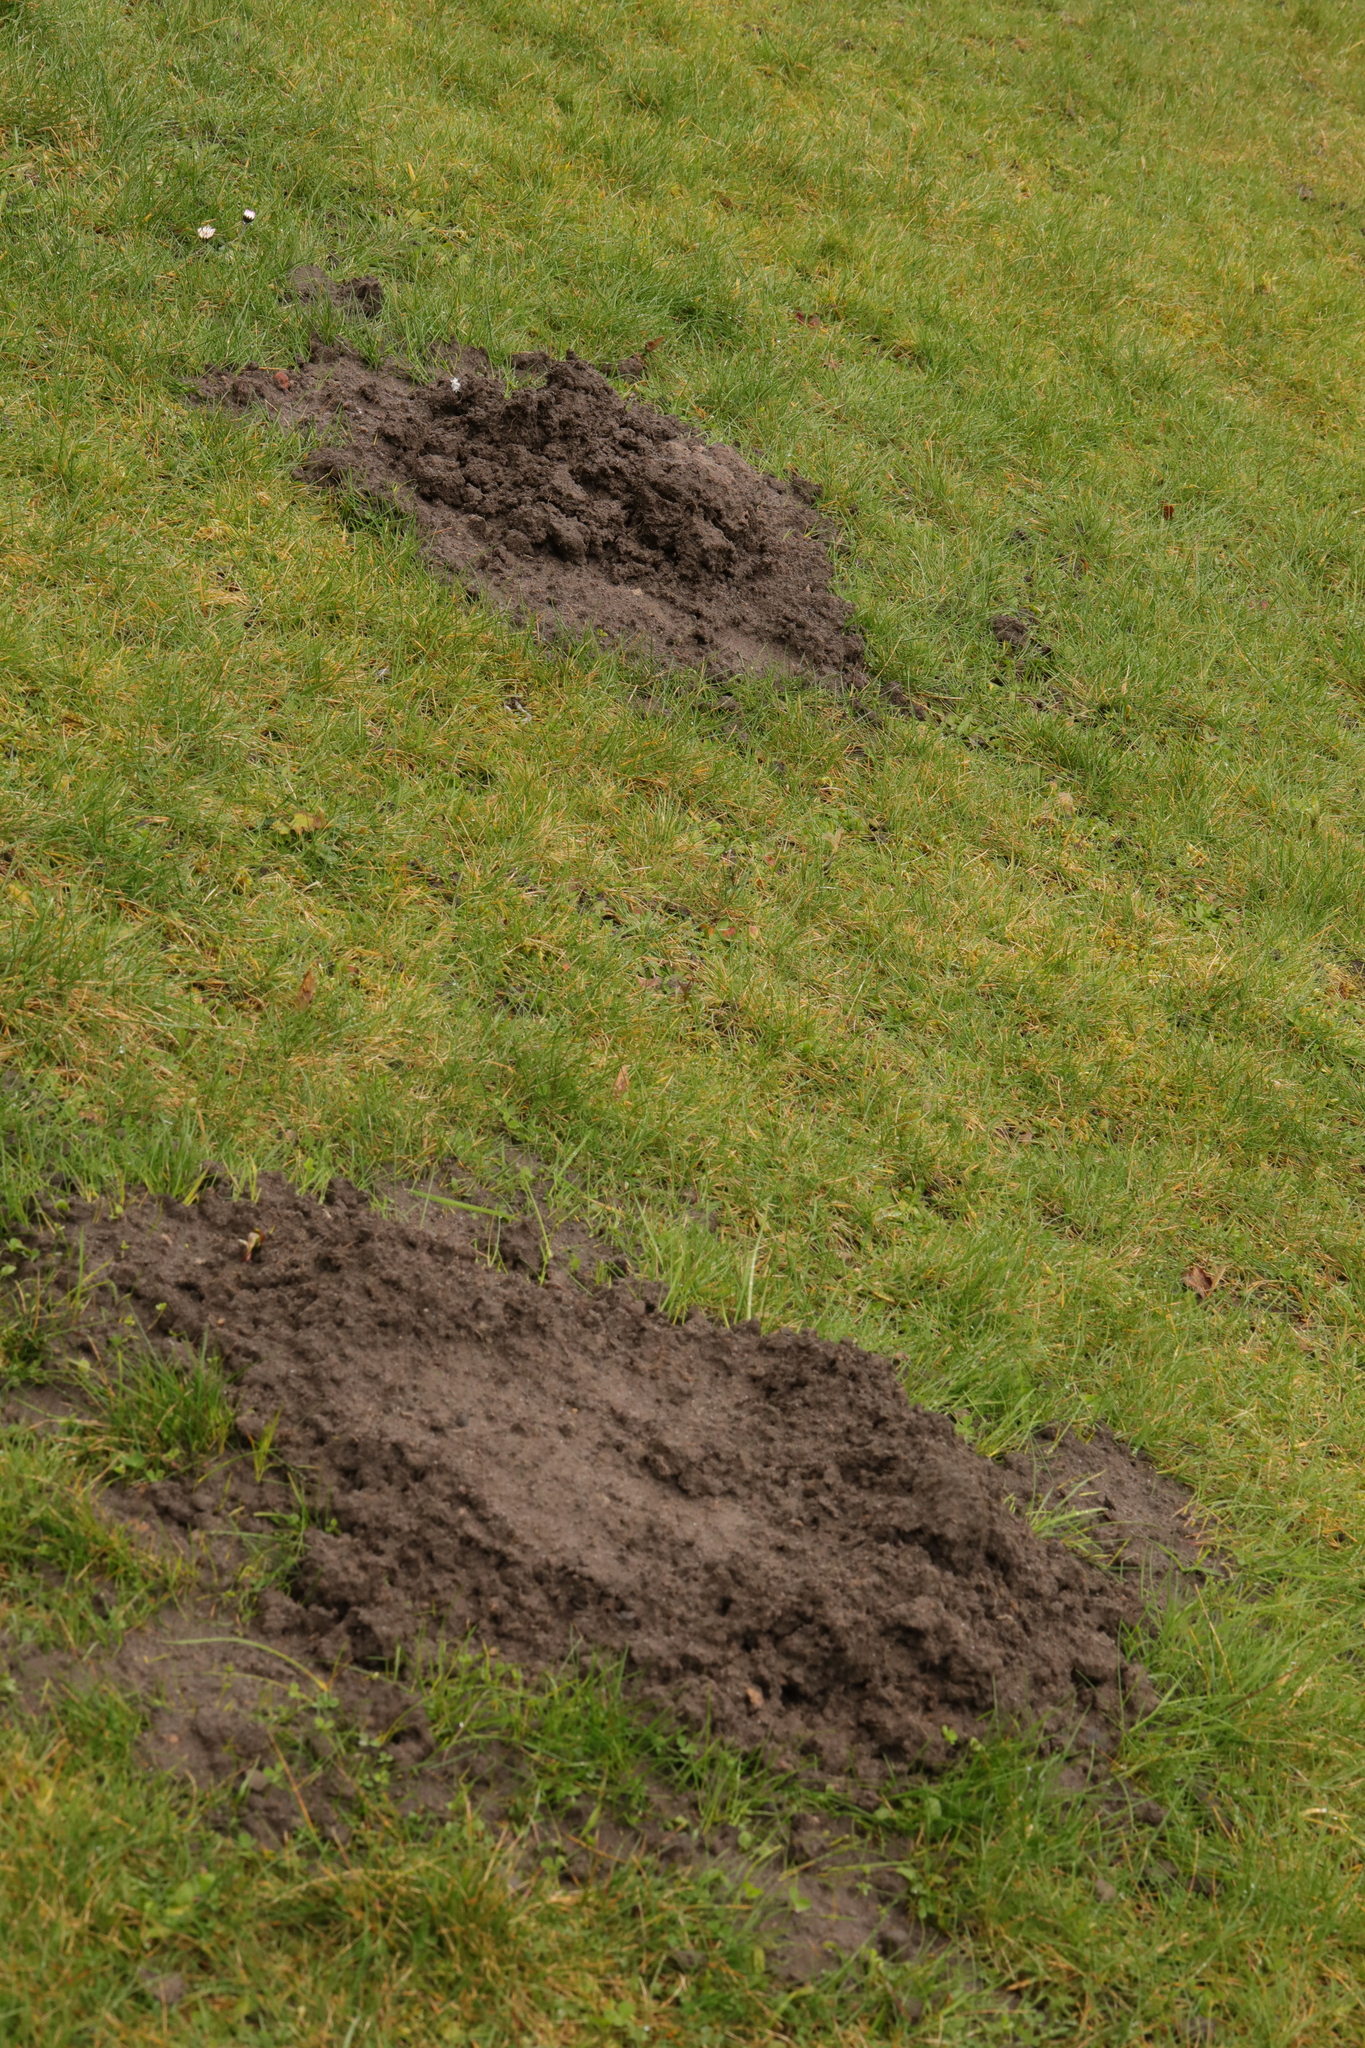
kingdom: Animalia
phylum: Chordata
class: Mammalia
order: Soricomorpha
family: Talpidae
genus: Talpa
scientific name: Talpa europaea
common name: European mole
